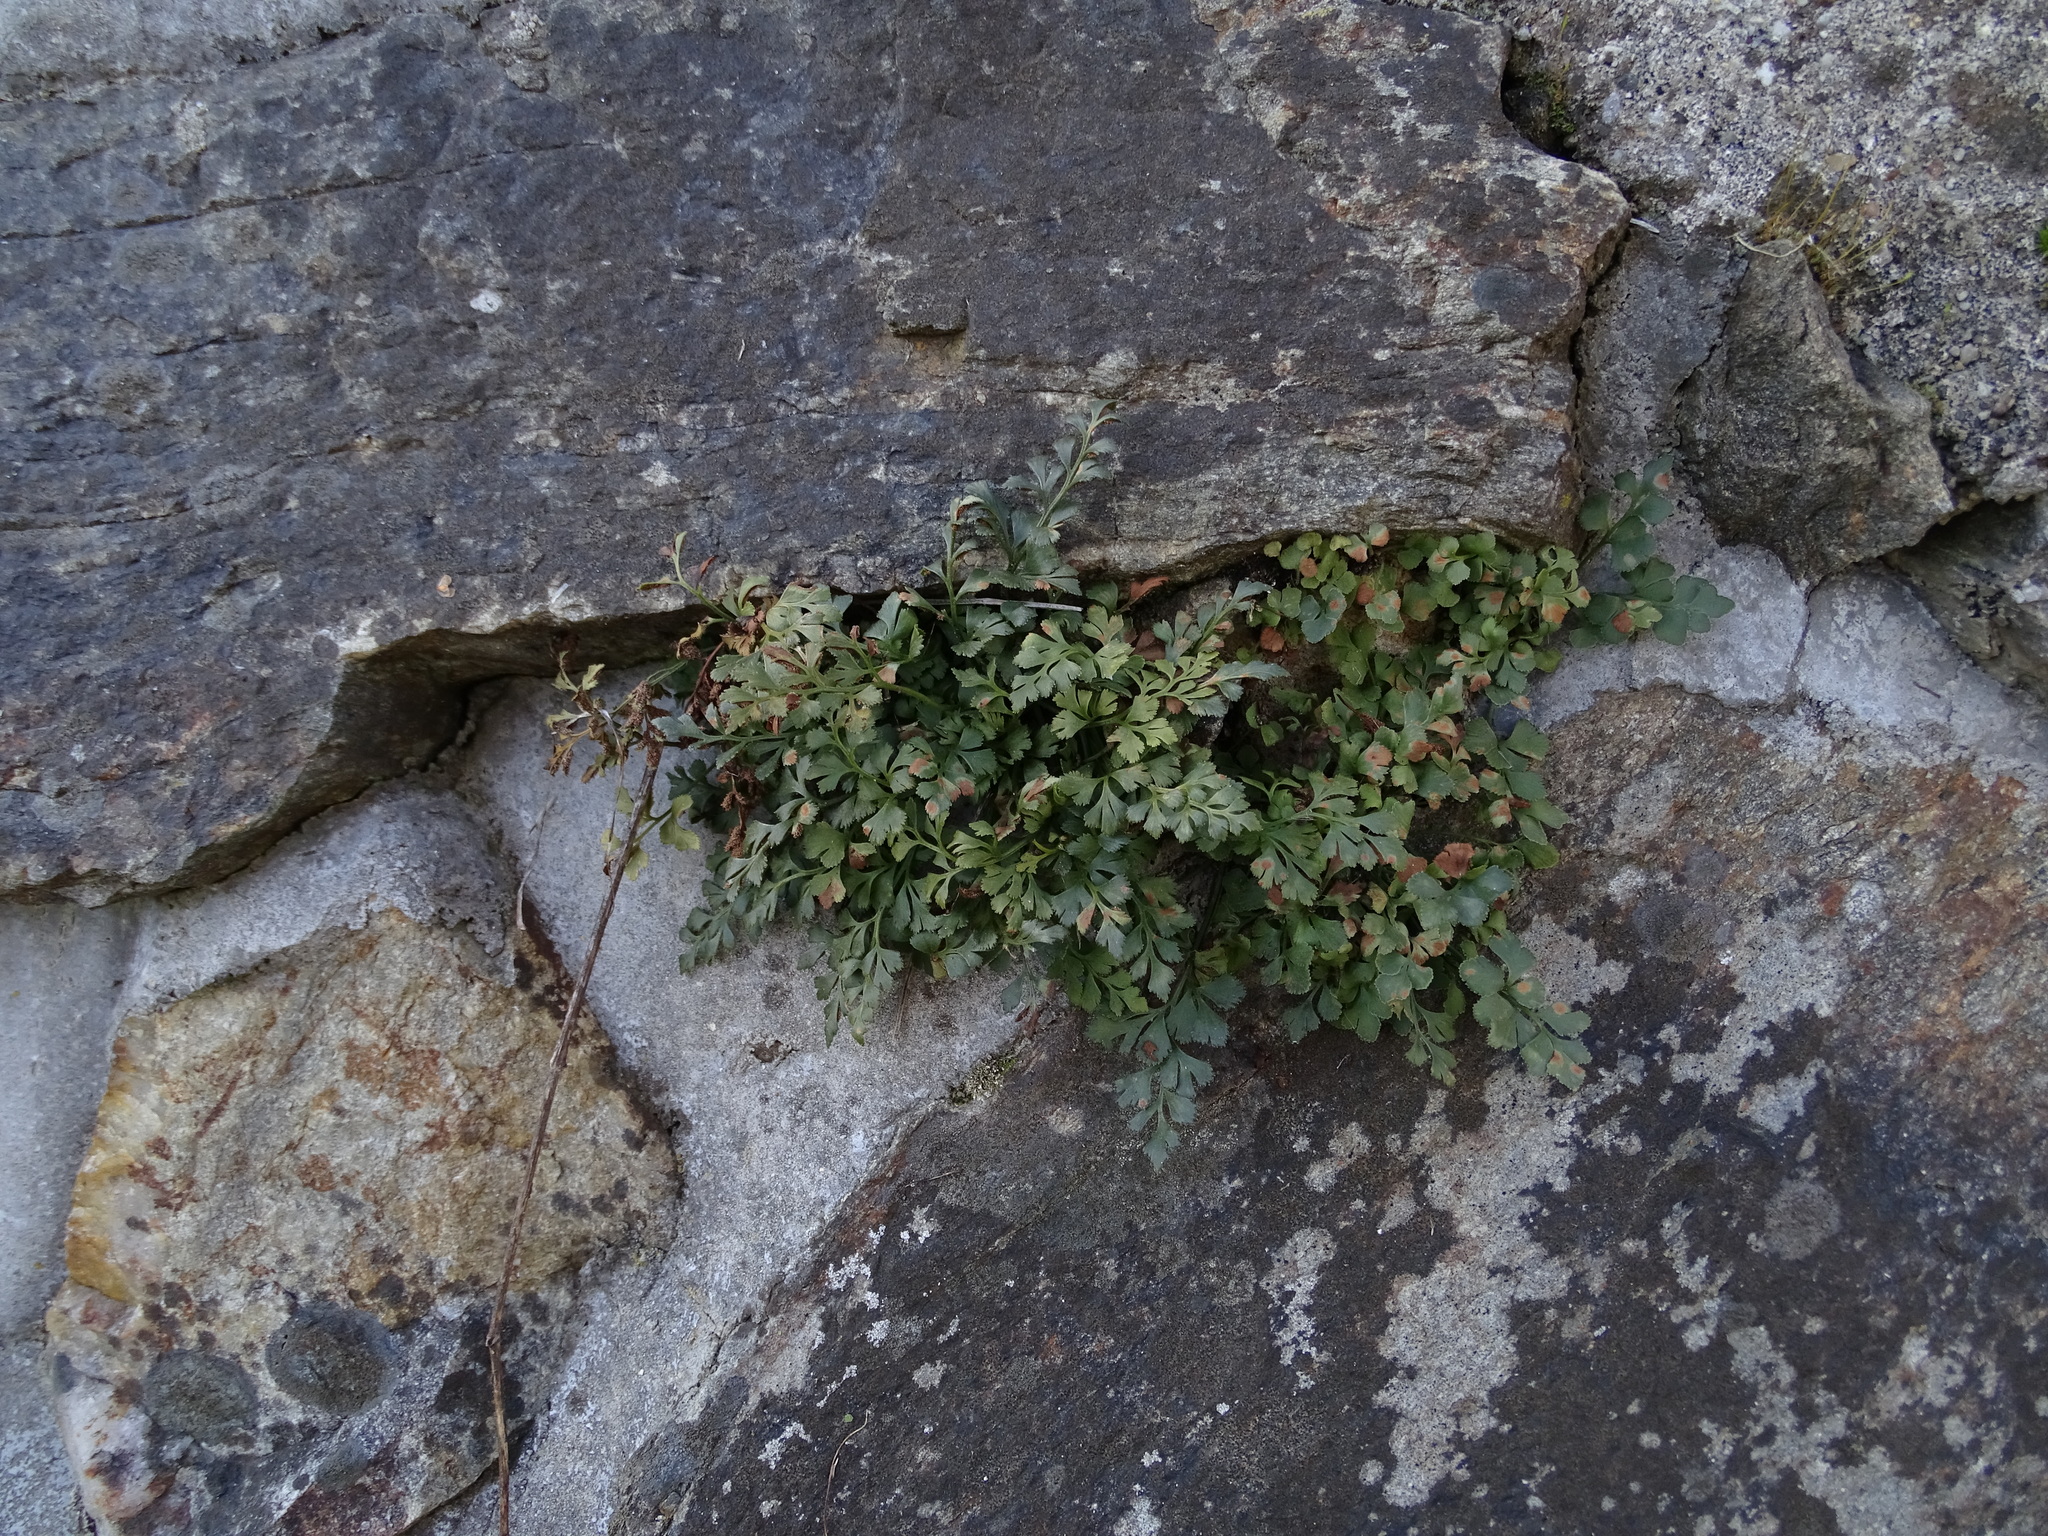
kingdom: Plantae
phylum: Tracheophyta
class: Polypodiopsida
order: Polypodiales
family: Aspleniaceae
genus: Asplenium
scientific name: Asplenium ruta-muraria
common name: Wall-rue
